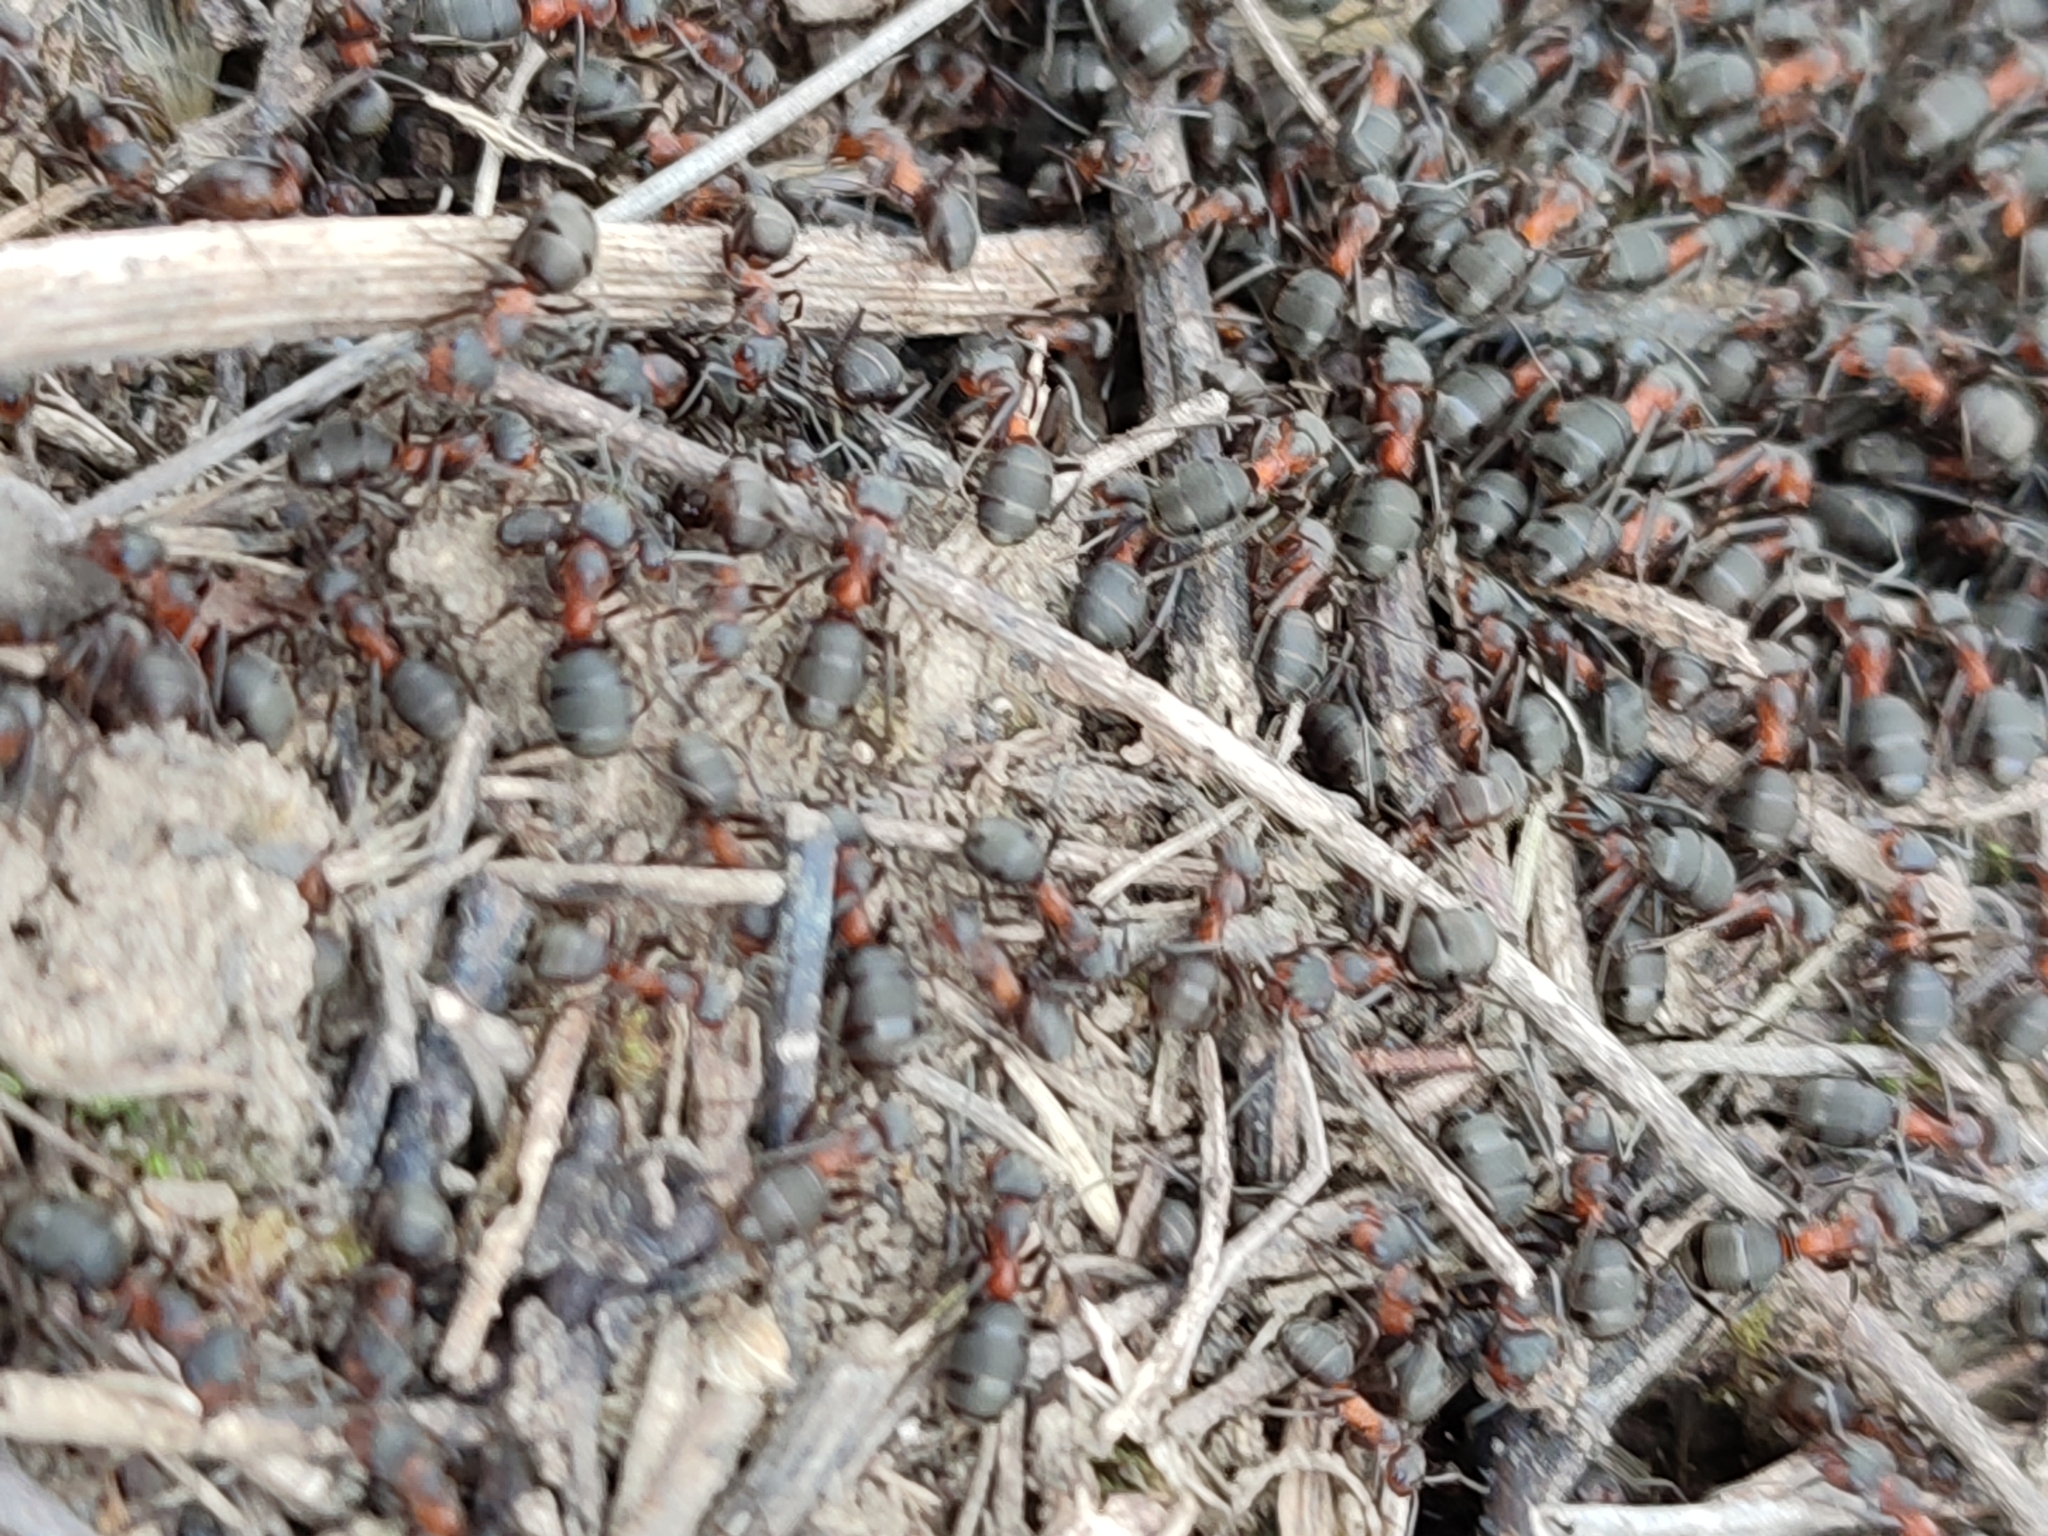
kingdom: Animalia
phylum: Arthropoda
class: Insecta
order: Hymenoptera
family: Formicidae
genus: Formica
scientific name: Formica pratensis
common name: European red wood ant
